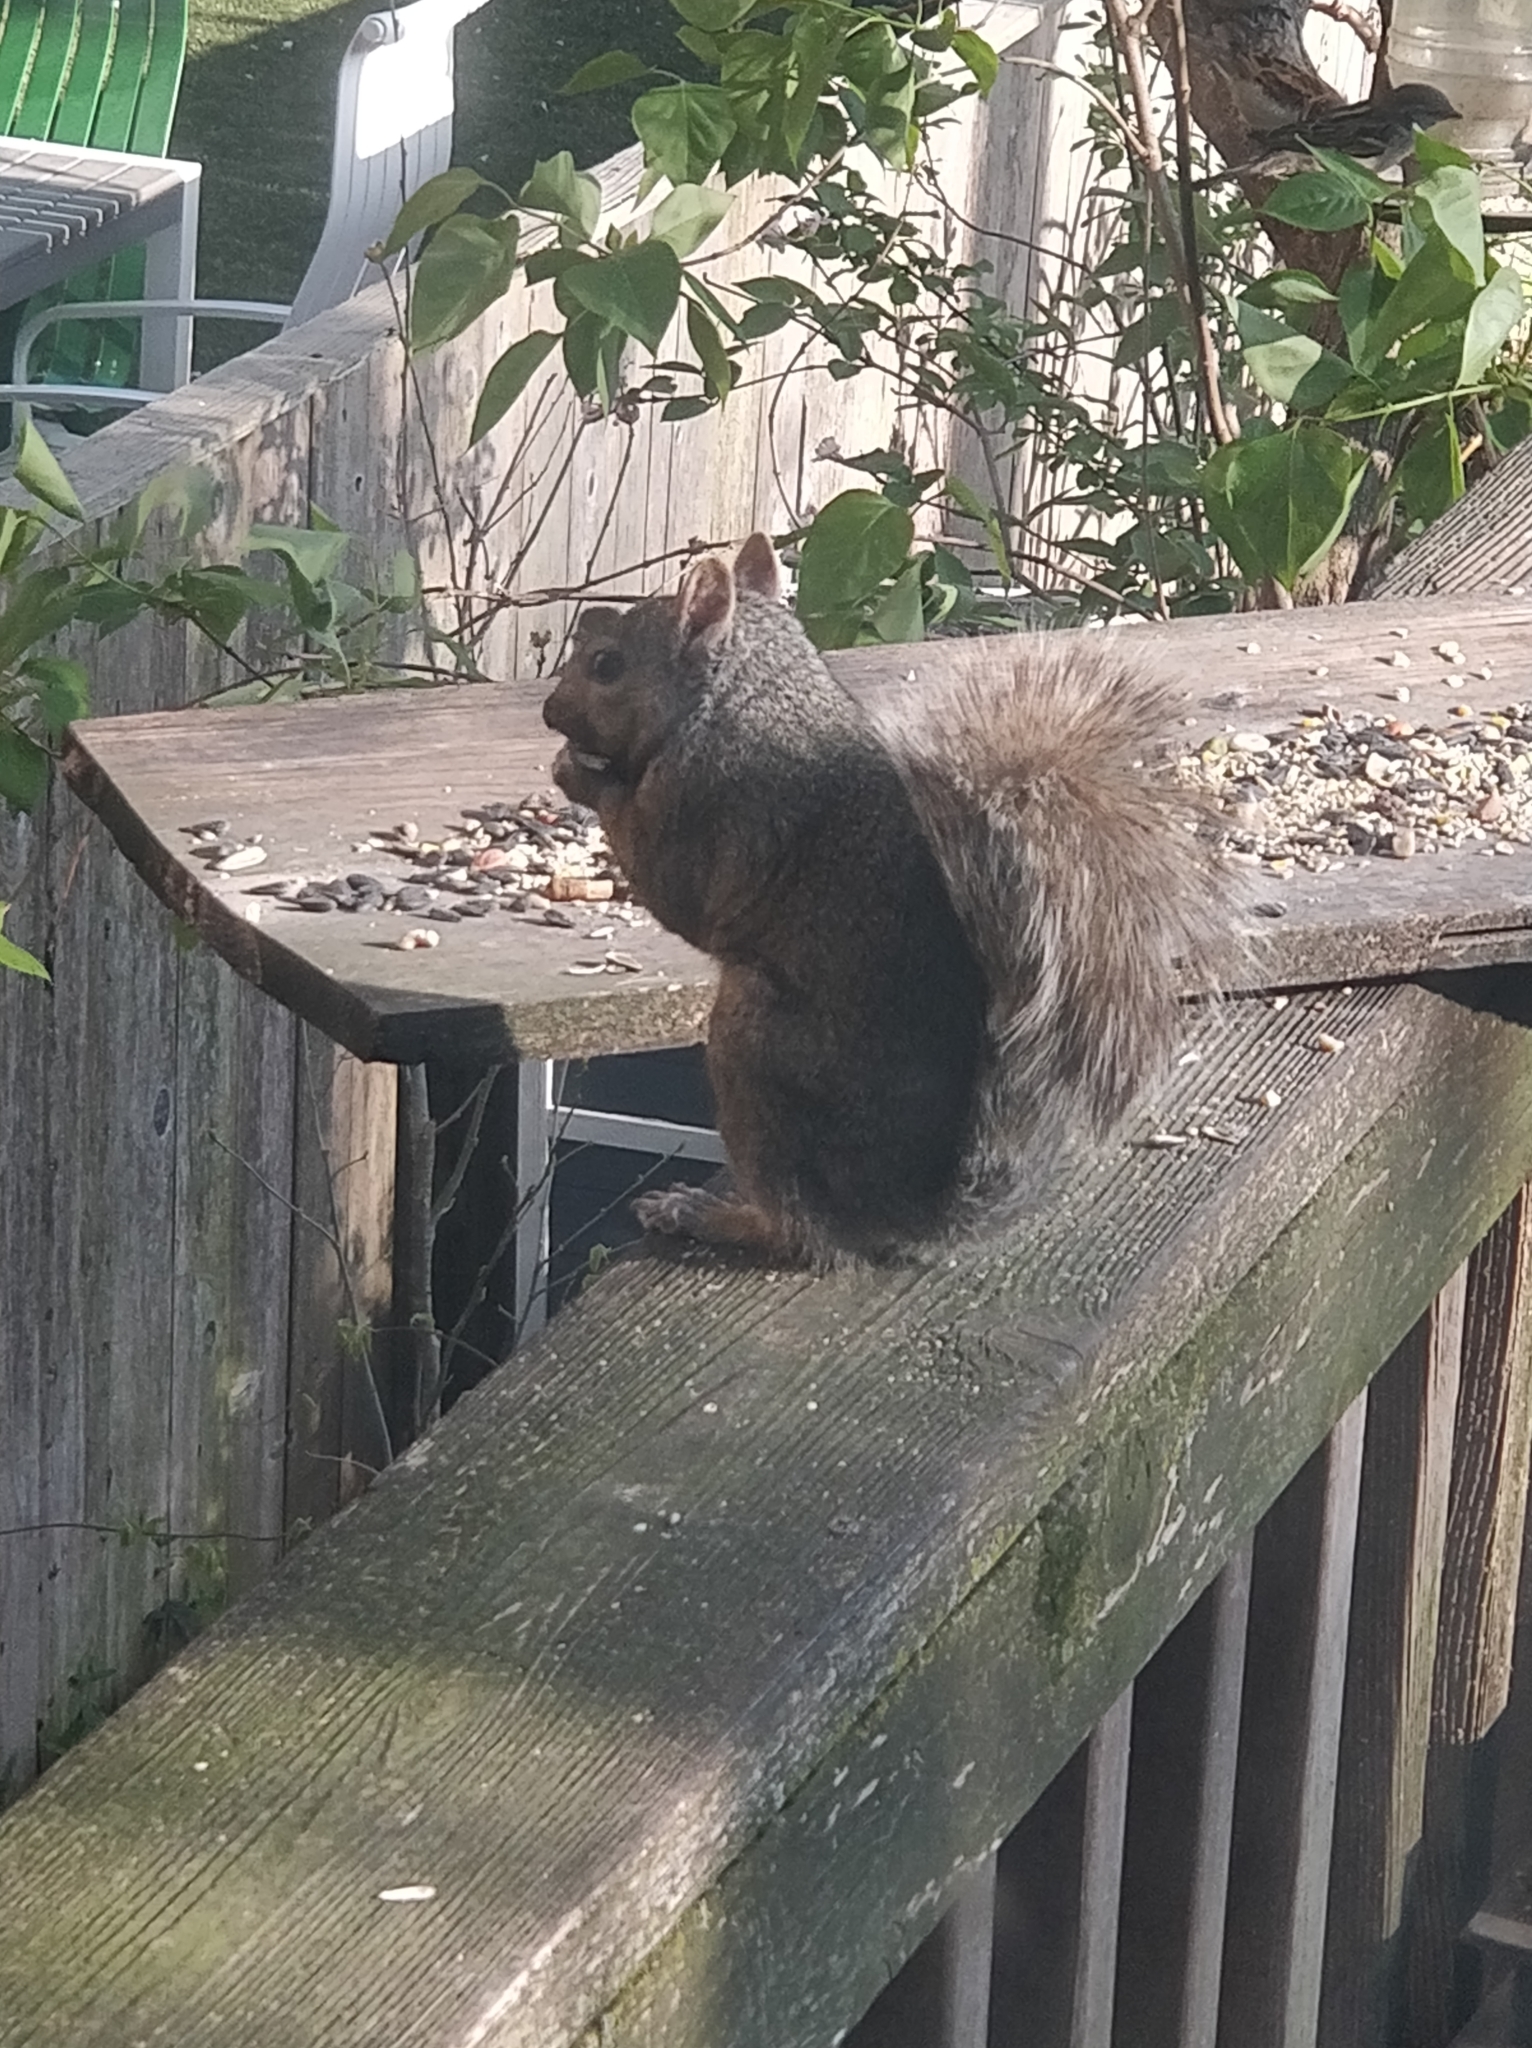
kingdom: Animalia
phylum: Chordata
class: Mammalia
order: Rodentia
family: Sciuridae
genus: Sciurus
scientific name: Sciurus carolinensis
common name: Eastern gray squirrel
